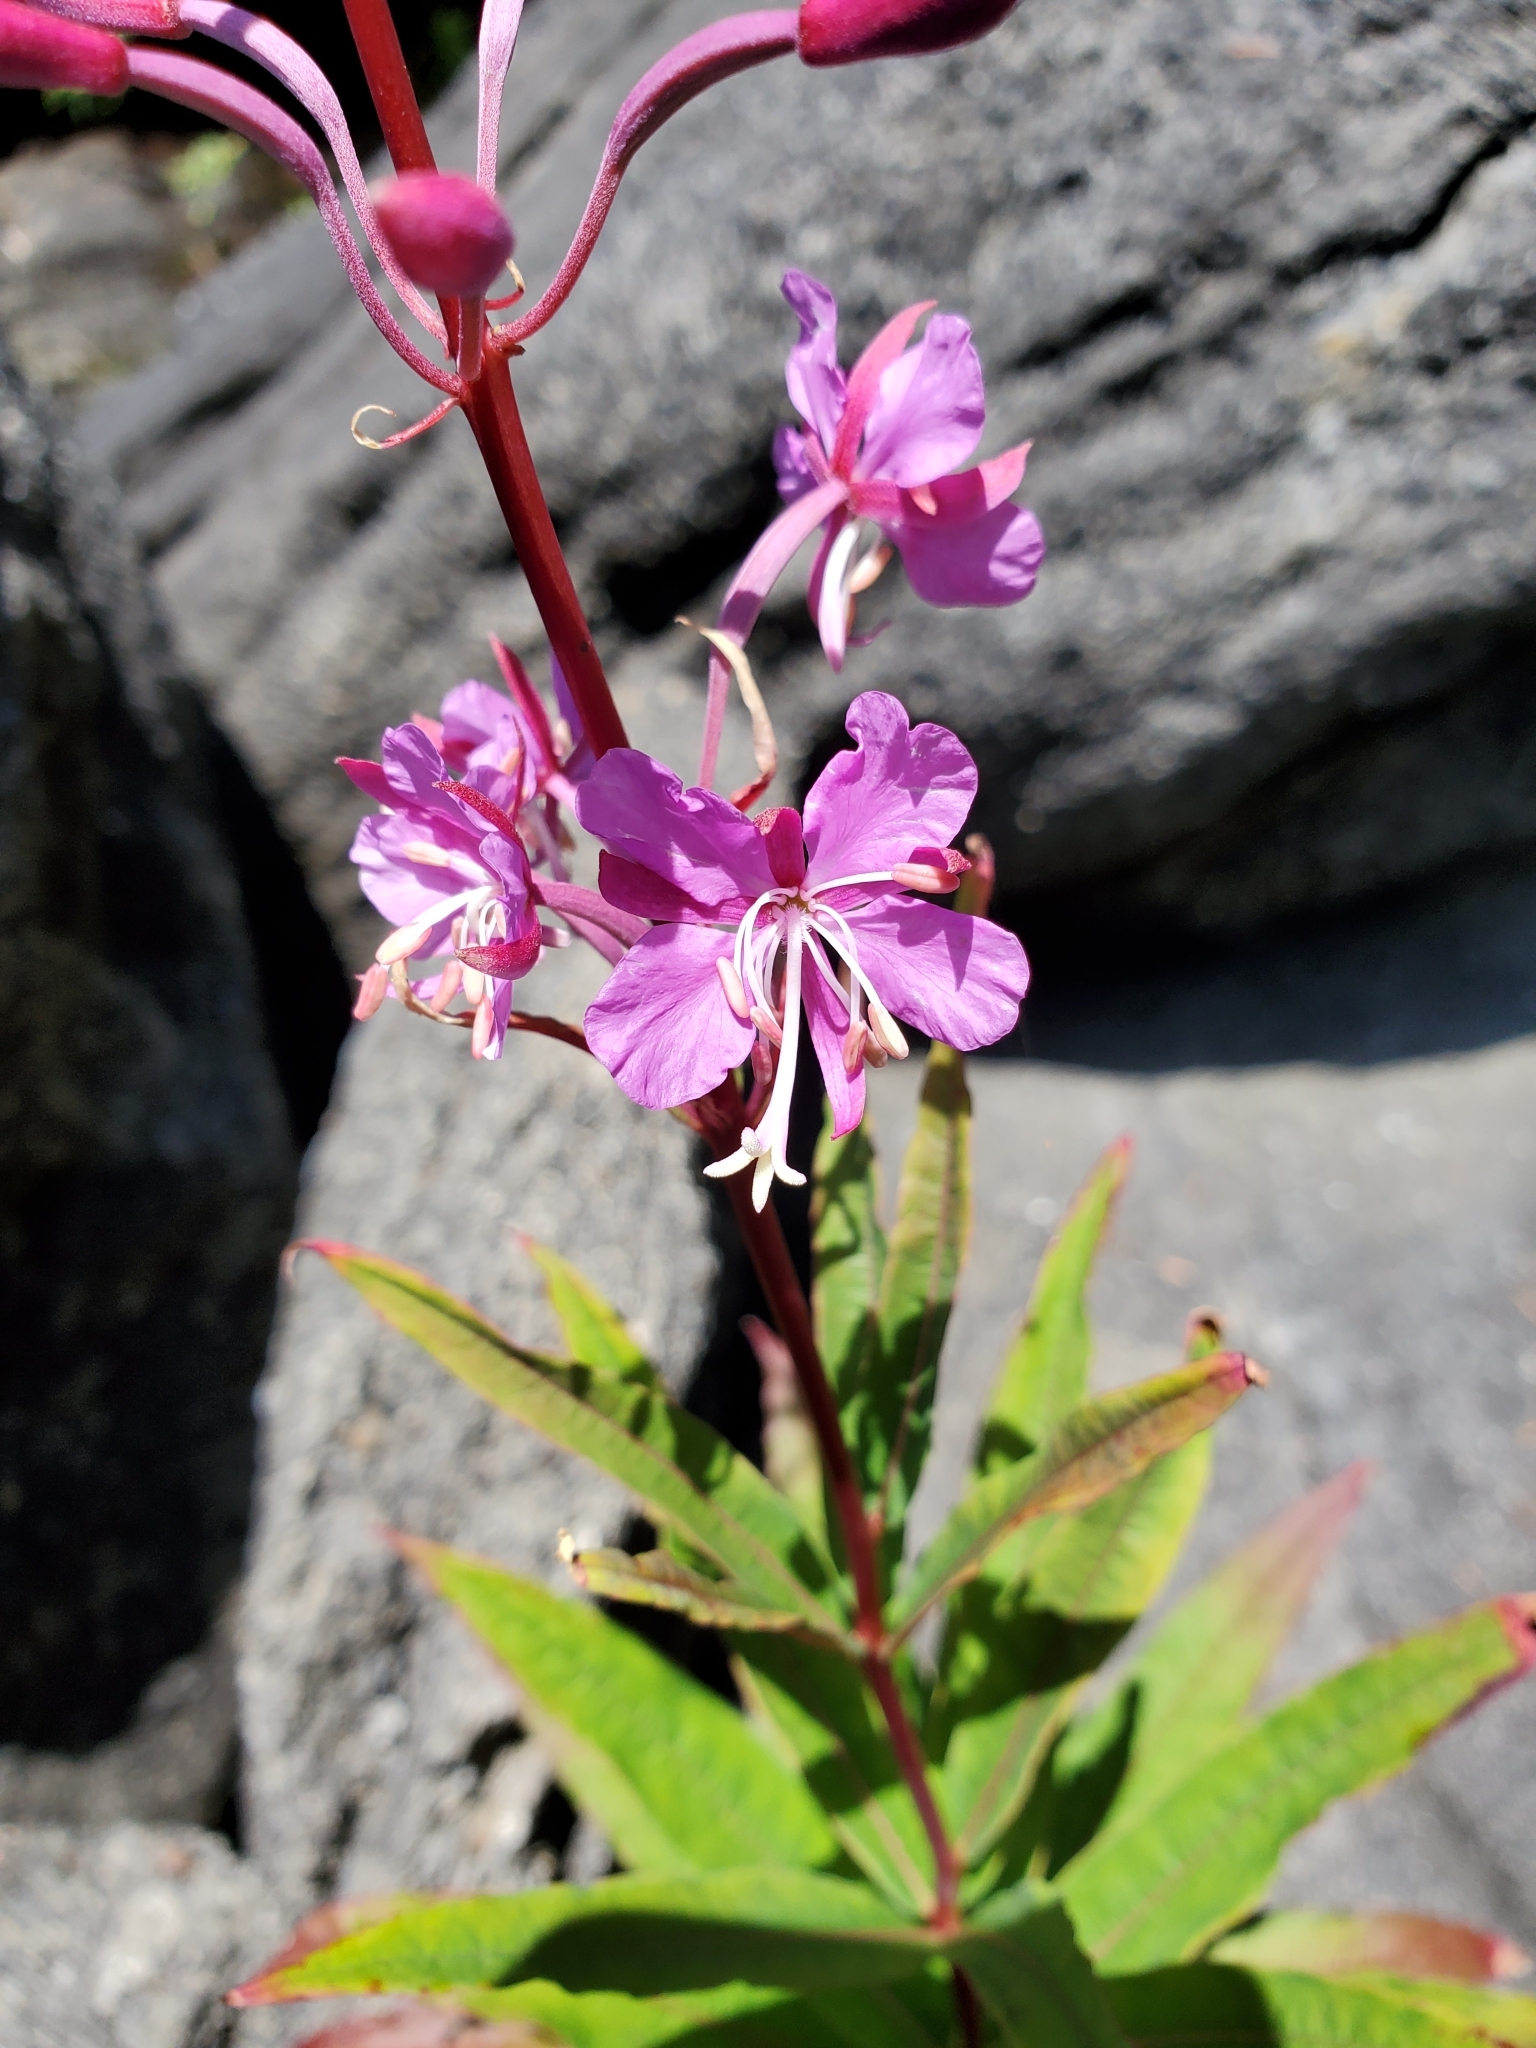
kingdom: Plantae
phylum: Tracheophyta
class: Magnoliopsida
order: Myrtales
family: Onagraceae
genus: Chamaenerion
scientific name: Chamaenerion angustifolium
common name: Fireweed
